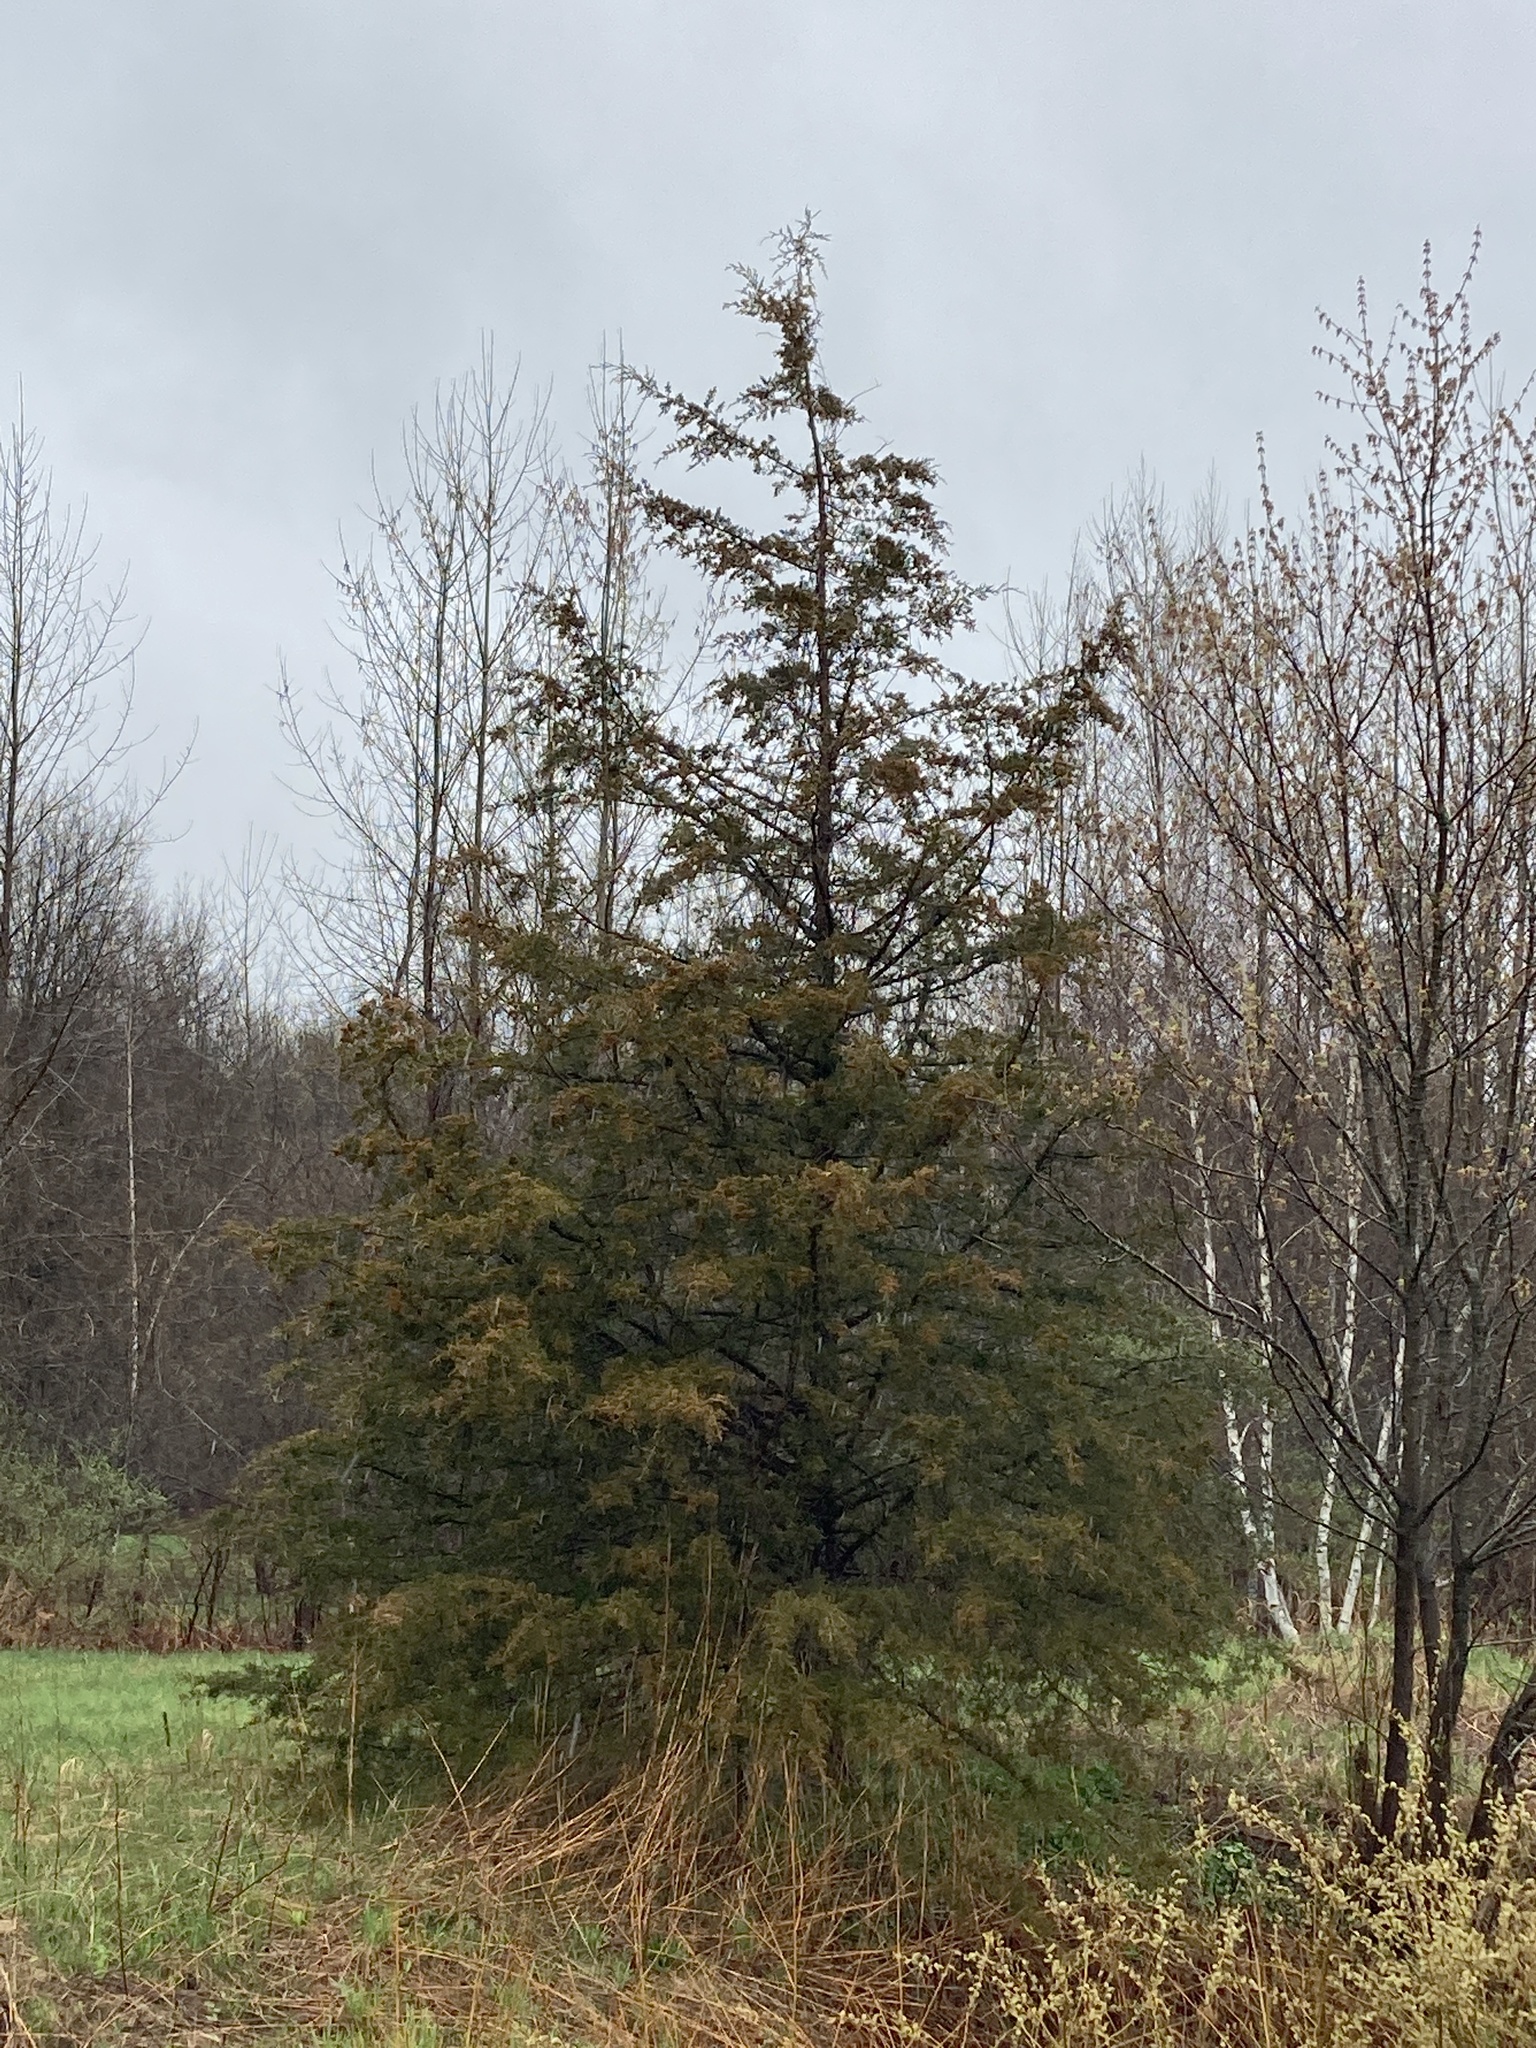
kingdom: Plantae
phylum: Tracheophyta
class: Pinopsida
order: Pinales
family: Cupressaceae
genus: Juniperus
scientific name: Juniperus virginiana
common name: Red juniper
